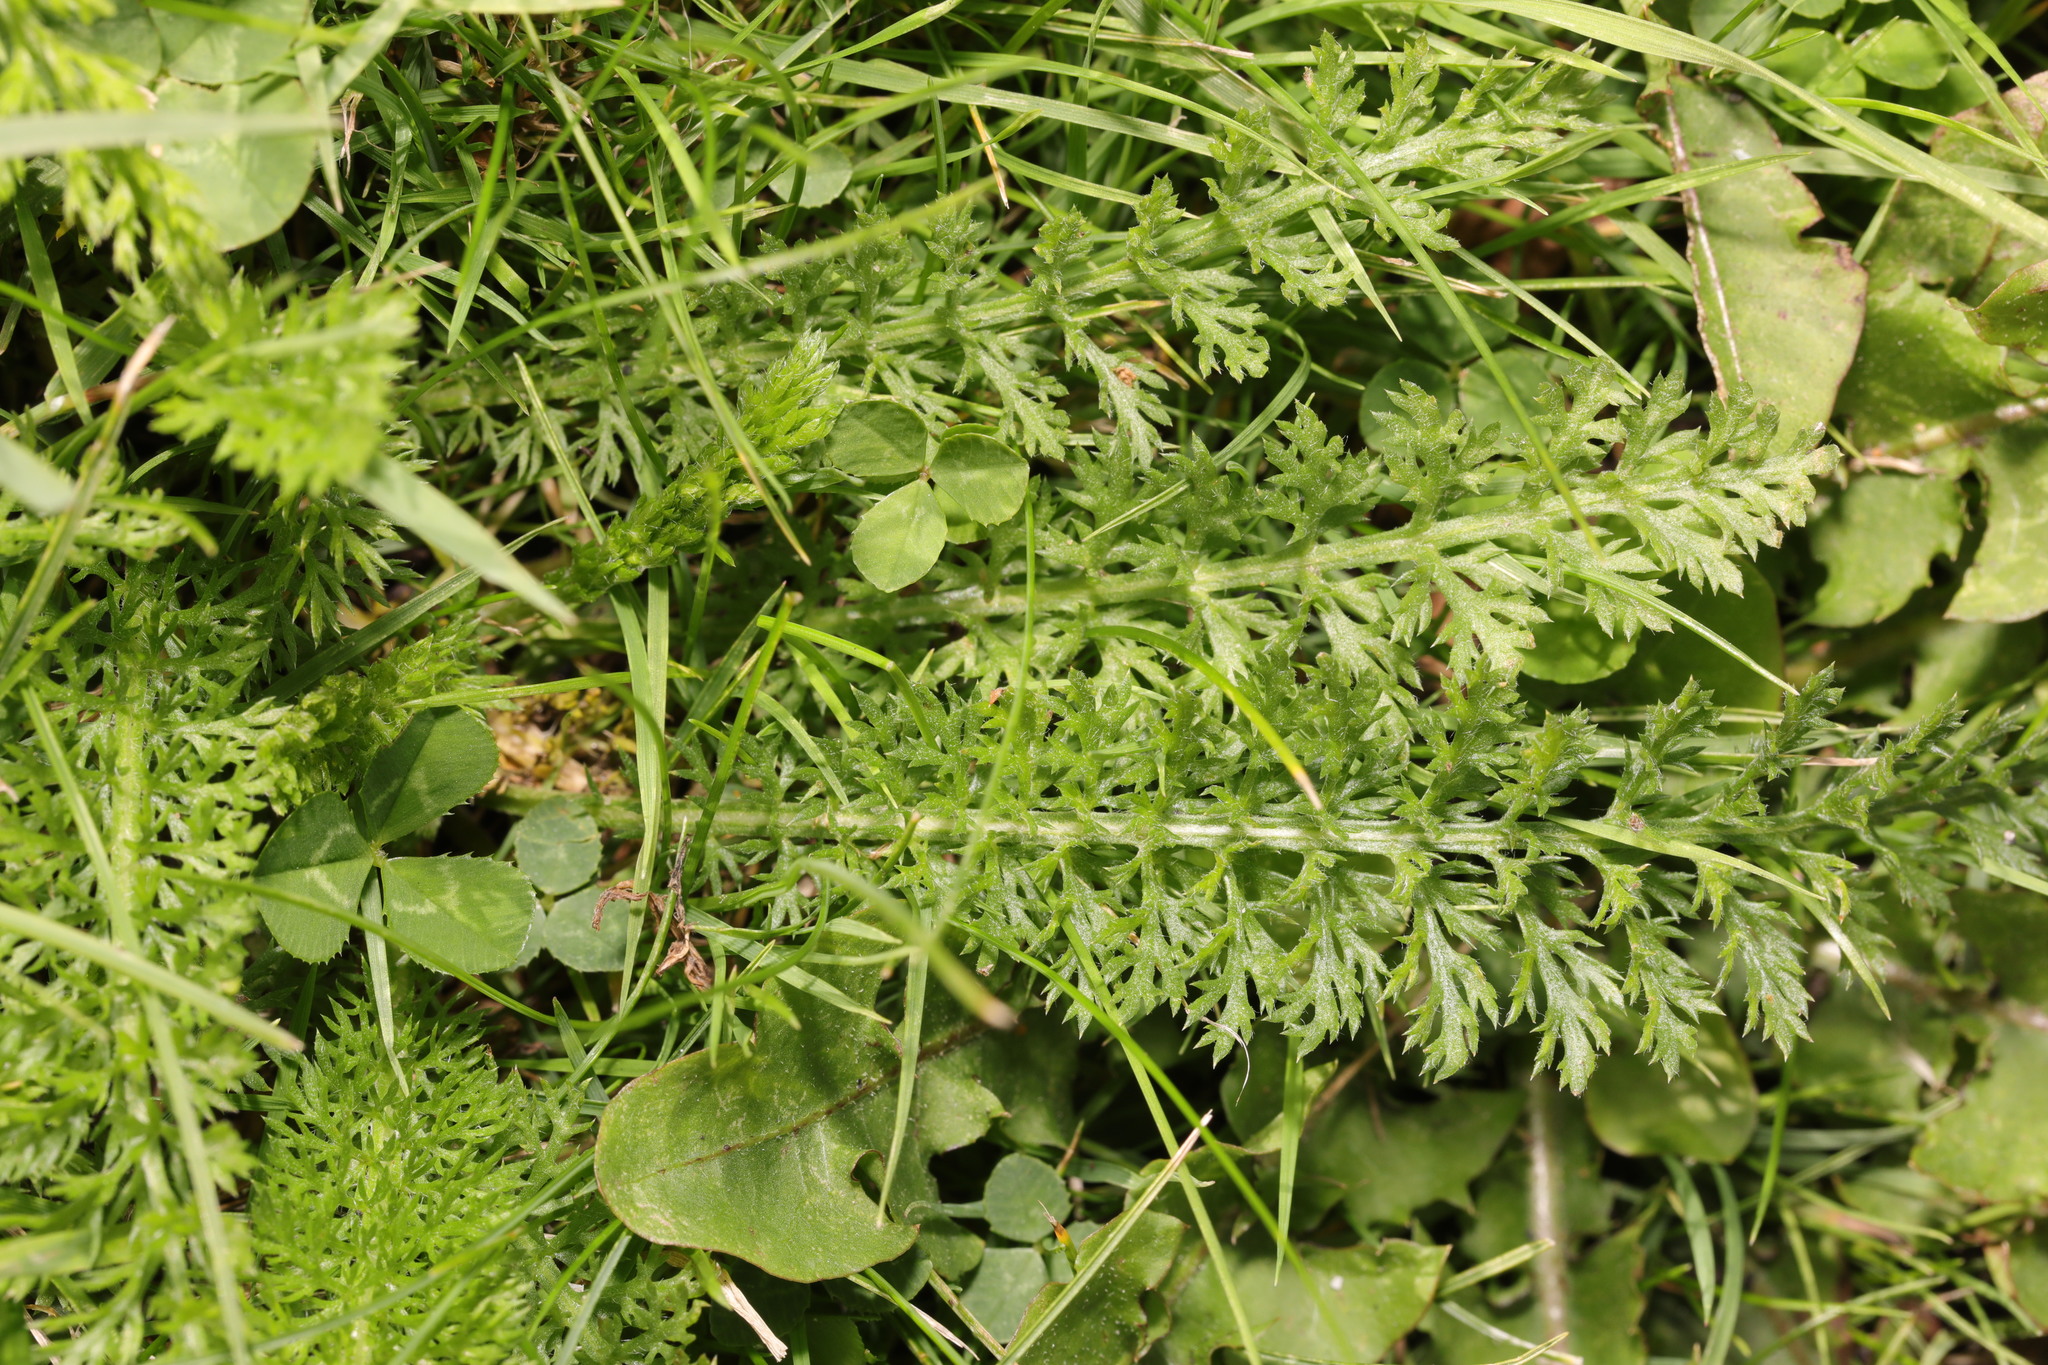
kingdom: Plantae
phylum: Tracheophyta
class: Magnoliopsida
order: Asterales
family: Asteraceae
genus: Achillea
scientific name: Achillea millefolium
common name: Yarrow
